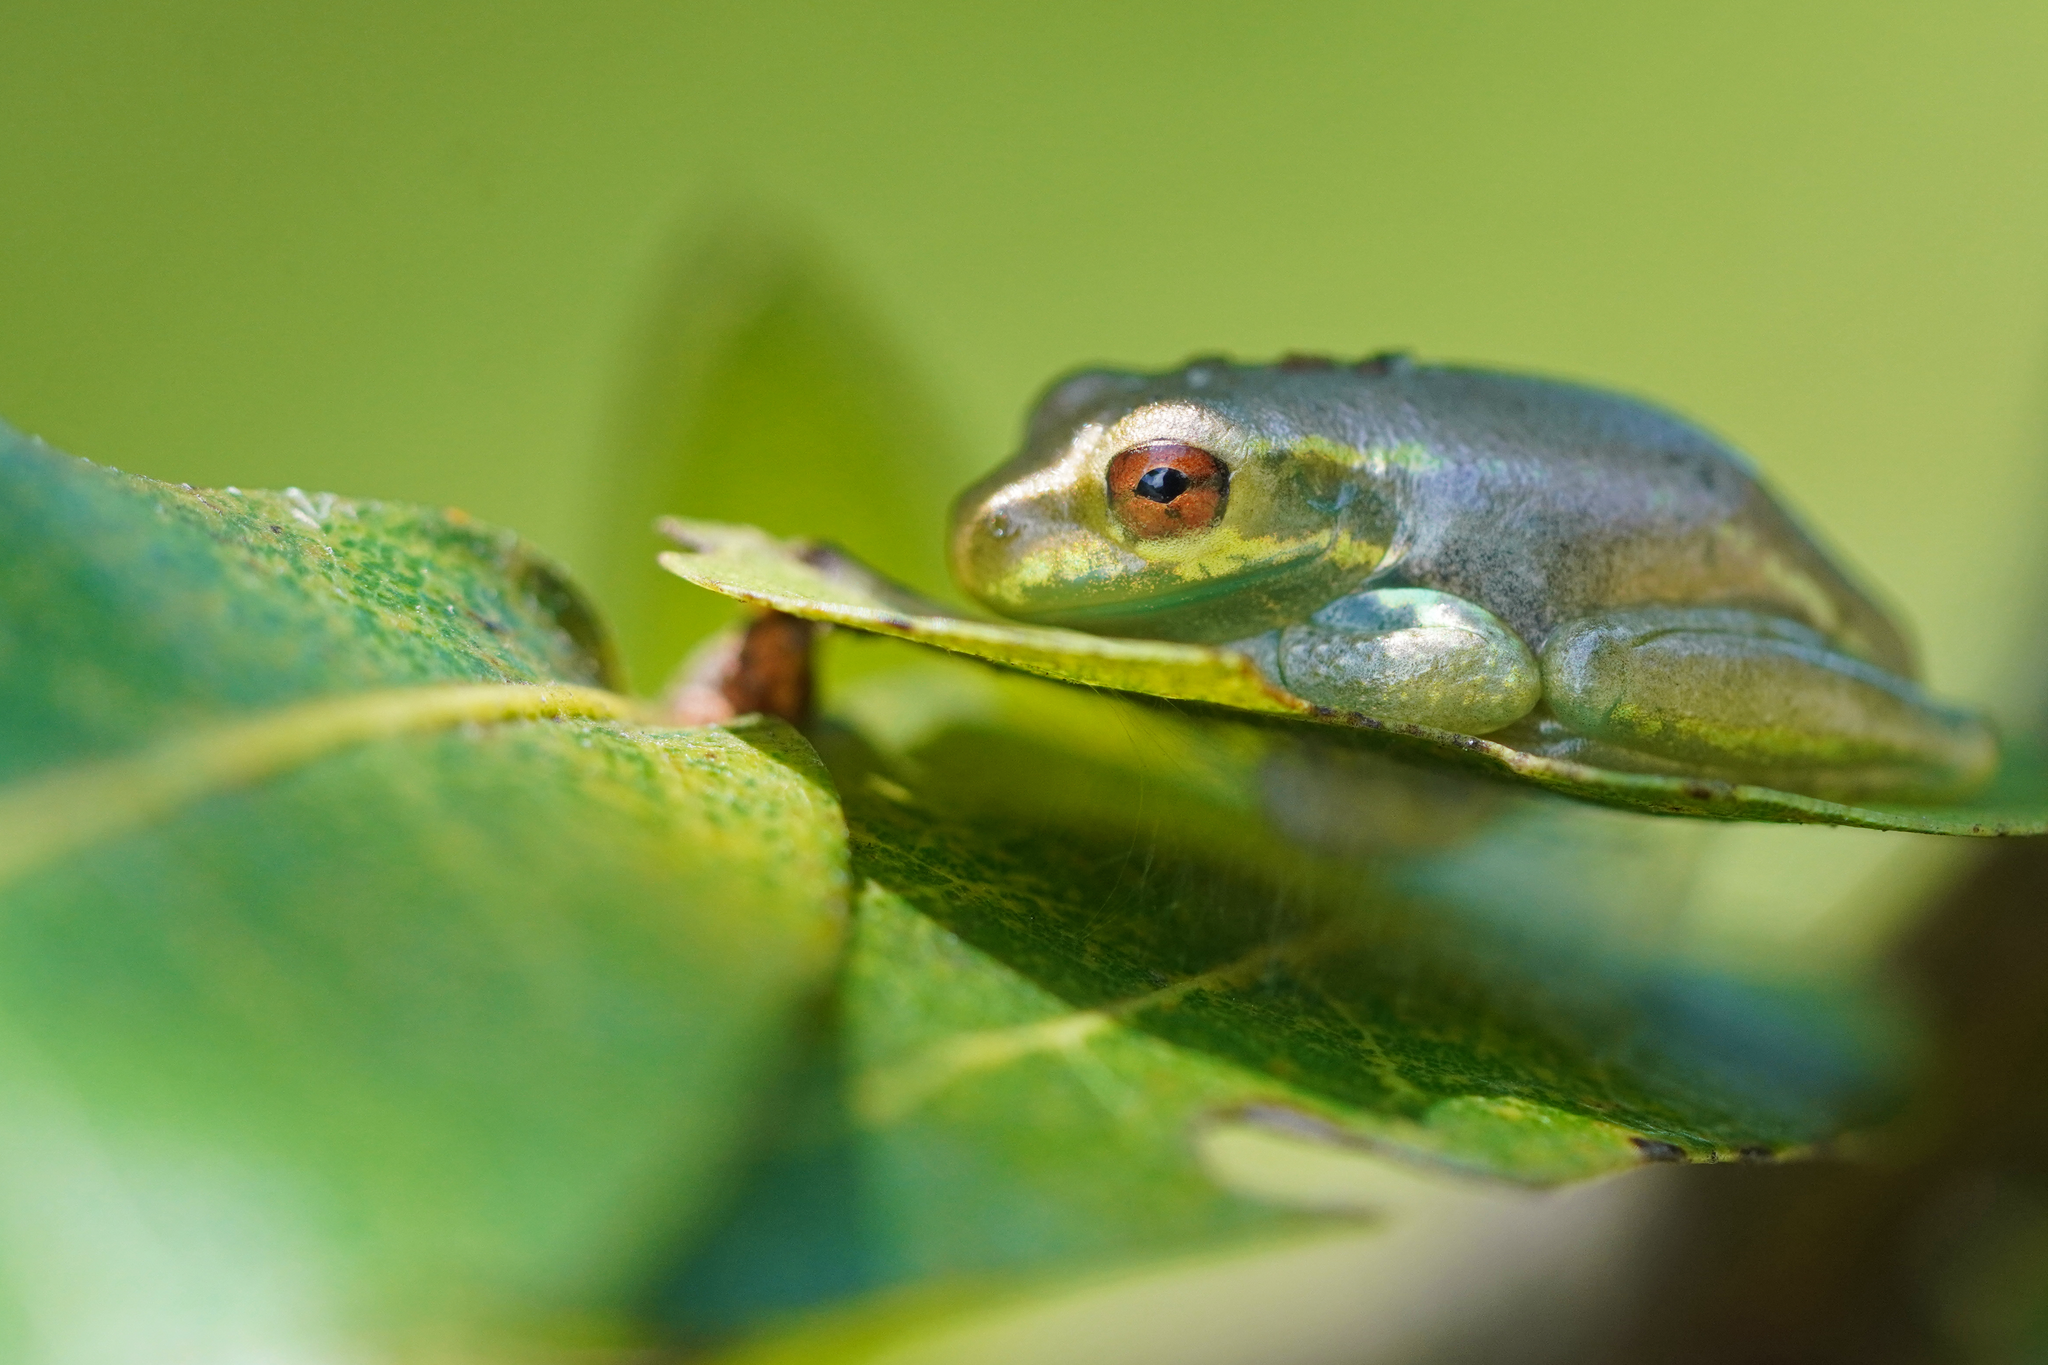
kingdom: Animalia
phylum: Chordata
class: Amphibia
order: Anura
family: Hylidae
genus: Osteopilus
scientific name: Osteopilus septentrionalis
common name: Cuban treefrog
